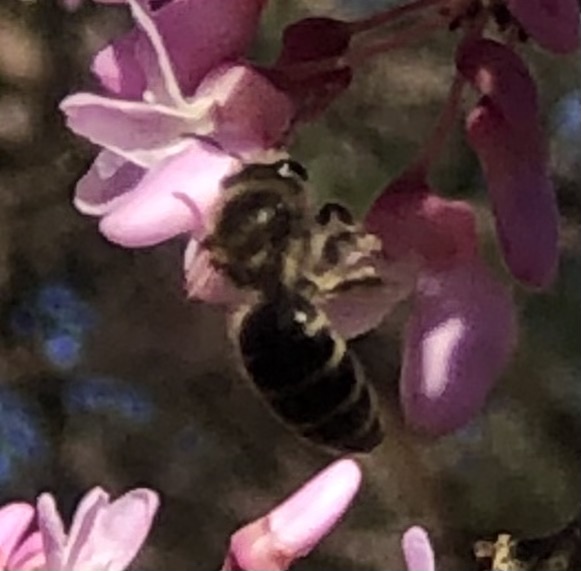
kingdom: Animalia
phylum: Arthropoda
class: Insecta
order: Hymenoptera
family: Colletidae
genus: Colletes
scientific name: Colletes inaequalis
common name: Unequal cellophane bee
